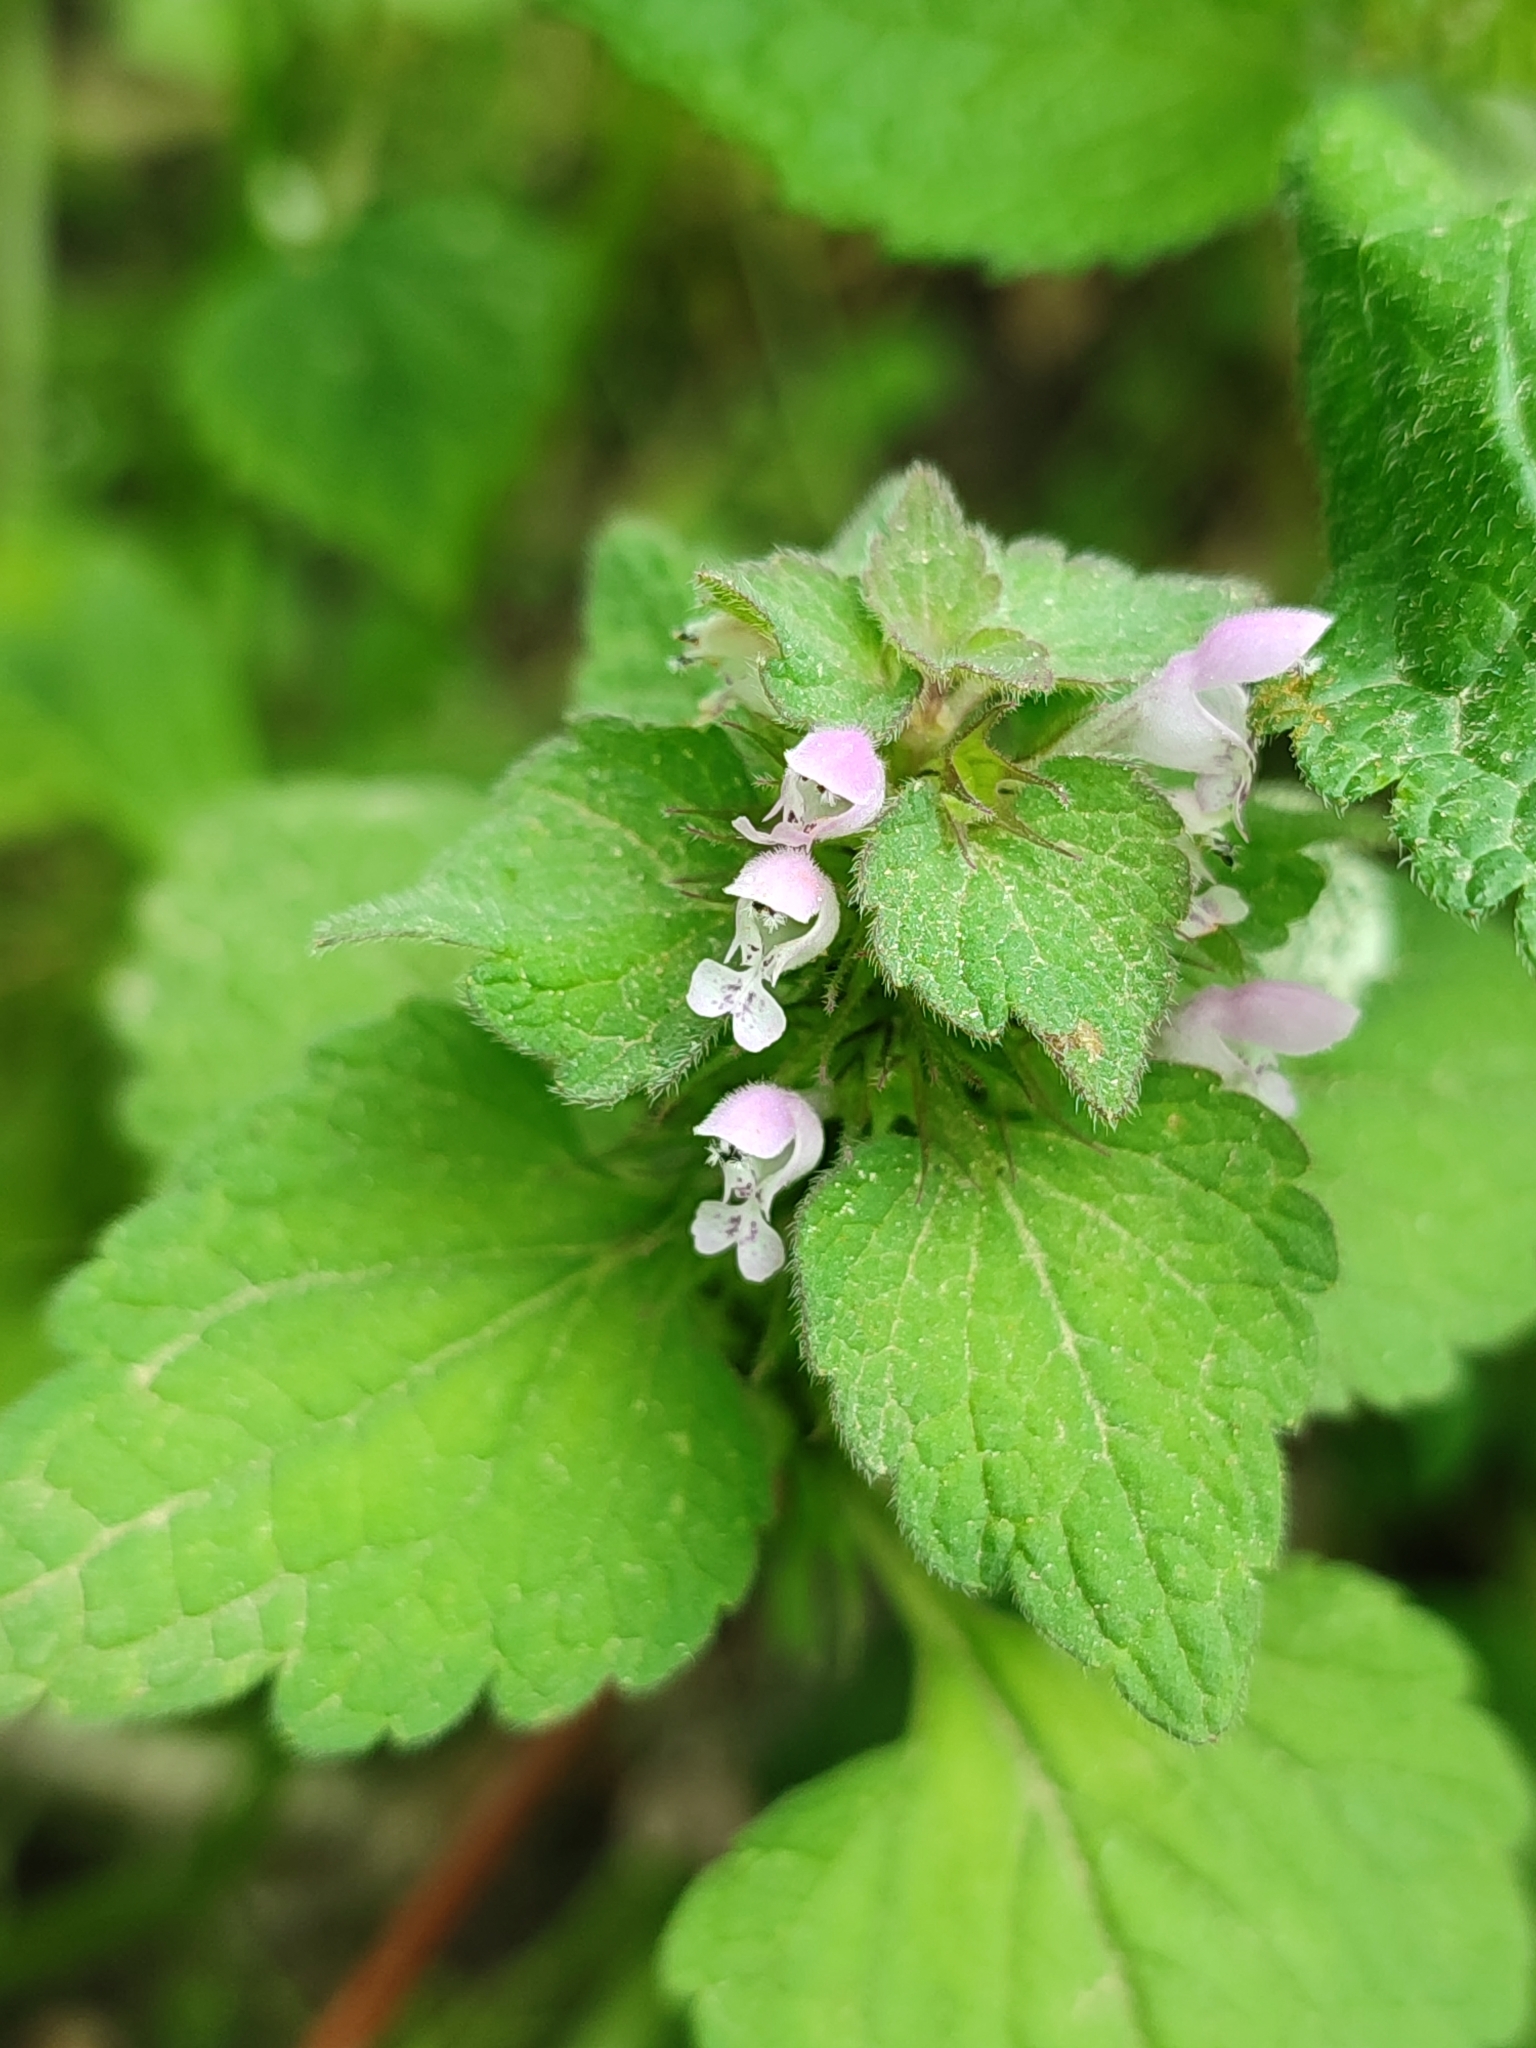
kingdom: Plantae
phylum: Tracheophyta
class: Magnoliopsida
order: Lamiales
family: Lamiaceae
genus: Lamium
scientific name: Lamium purpureum
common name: Red dead-nettle
